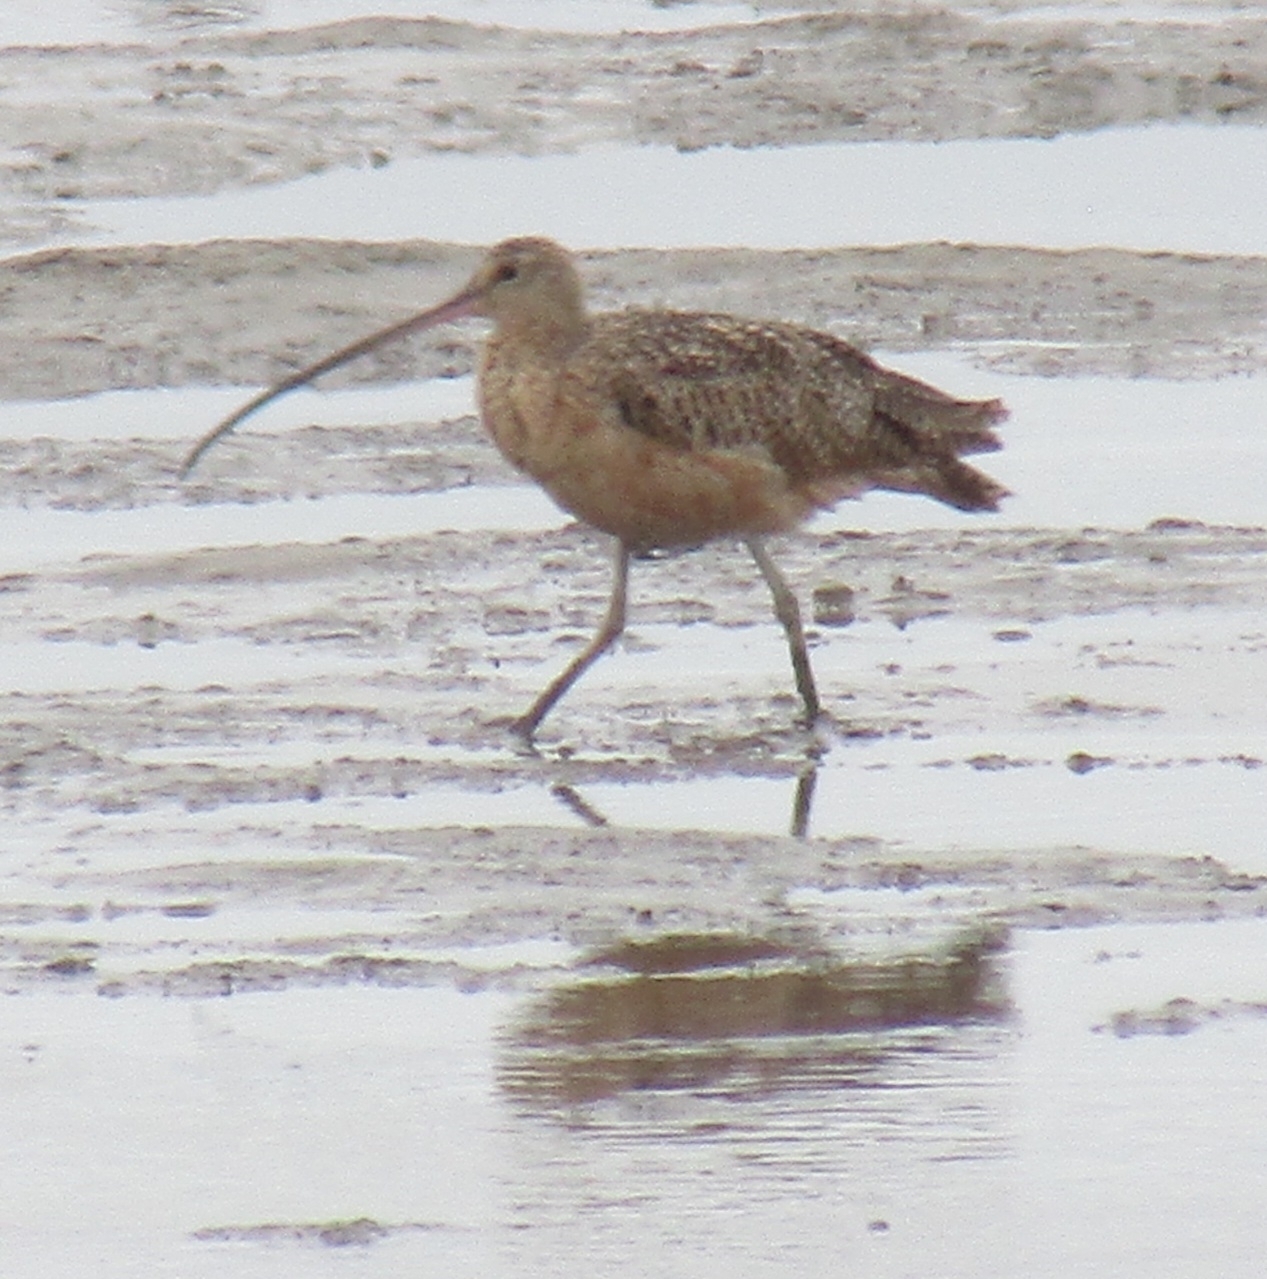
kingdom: Animalia
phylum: Chordata
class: Aves
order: Charadriiformes
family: Scolopacidae
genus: Numenius
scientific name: Numenius americanus
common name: Long-billed curlew
